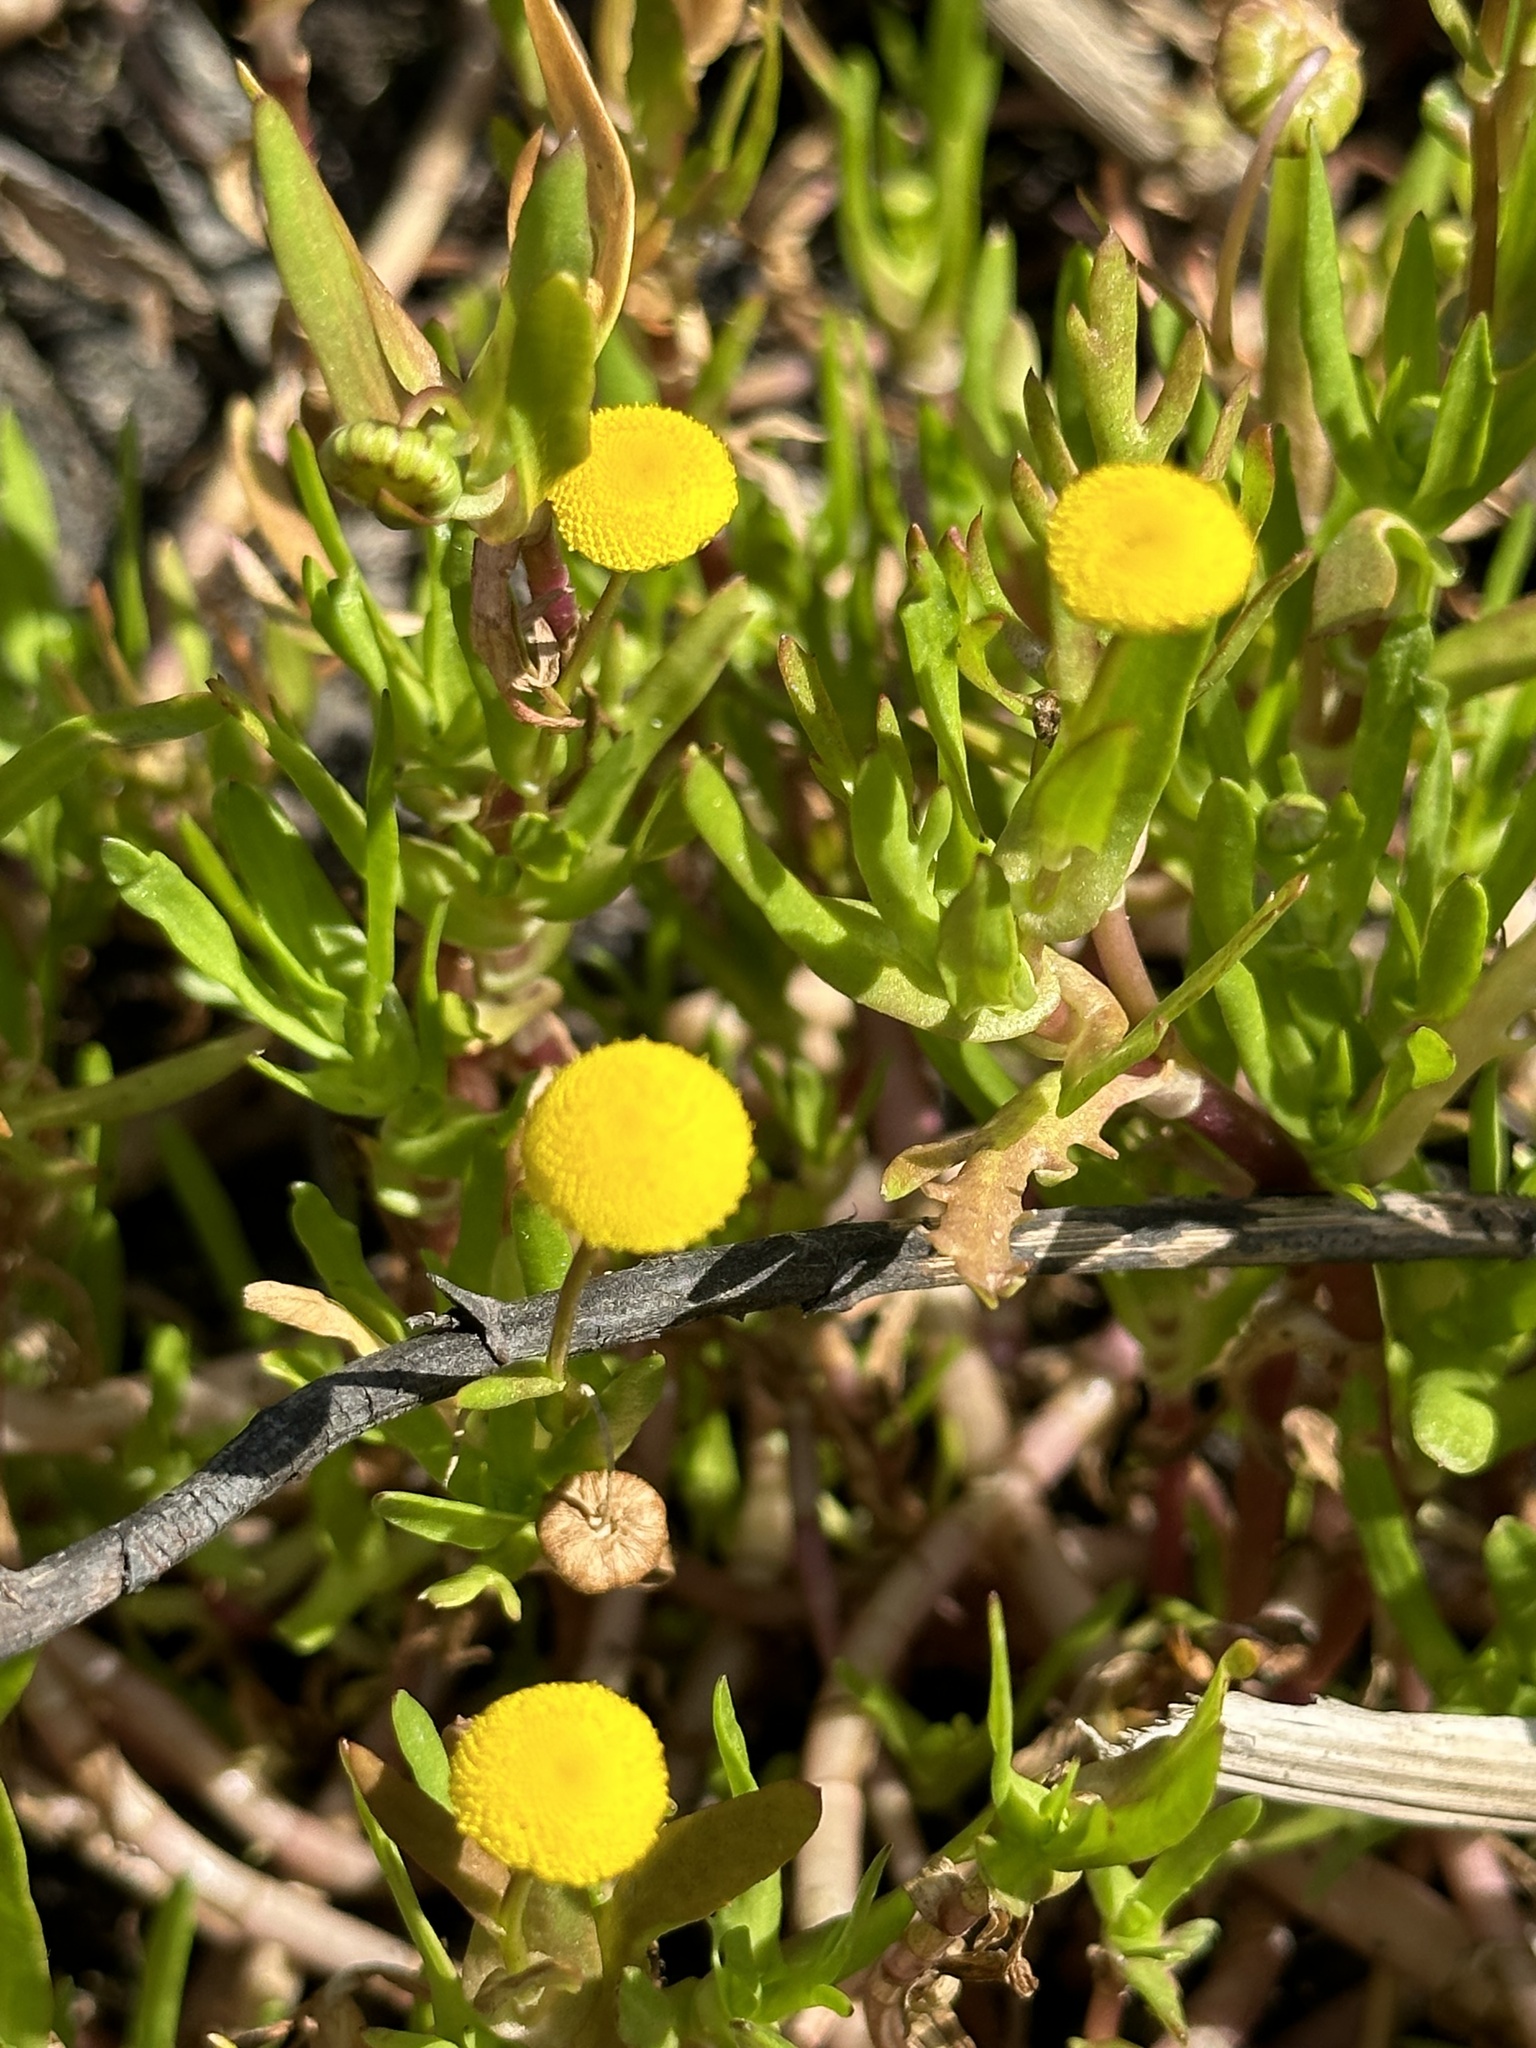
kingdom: Plantae
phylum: Tracheophyta
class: Magnoliopsida
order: Asterales
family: Asteraceae
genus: Cotula
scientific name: Cotula coronopifolia
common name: Buttonweed
